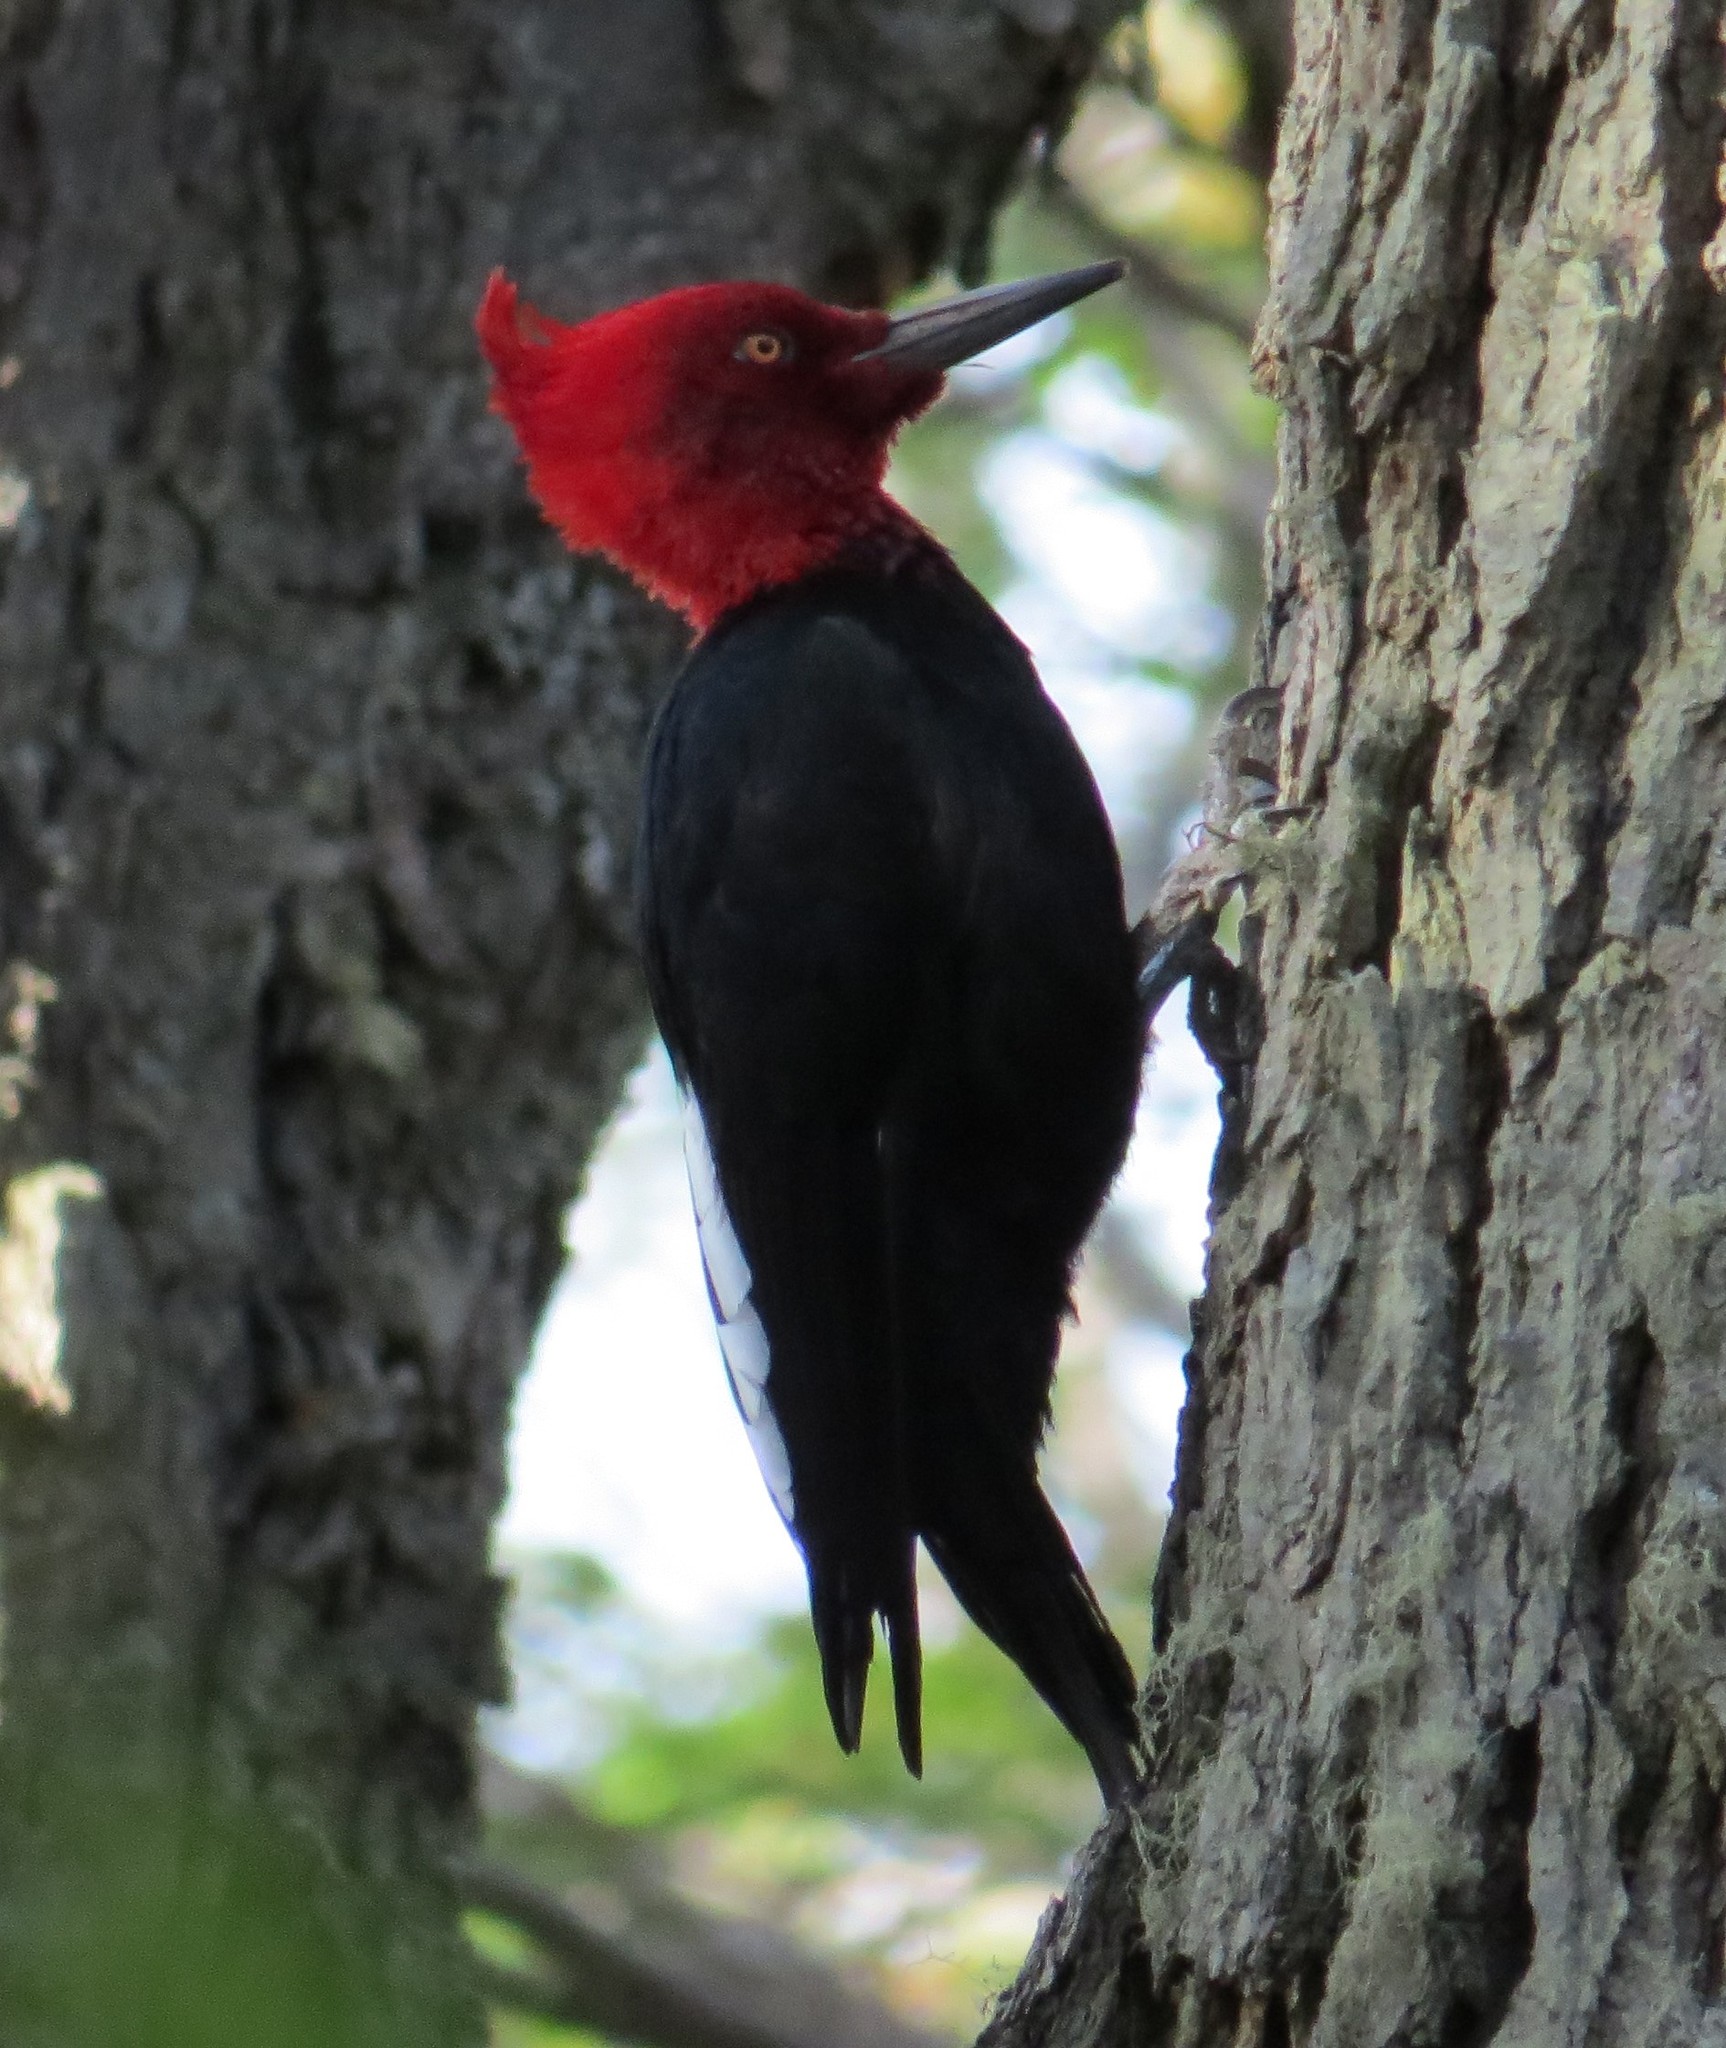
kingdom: Animalia
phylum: Chordata
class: Aves
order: Piciformes
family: Picidae
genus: Campephilus
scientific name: Campephilus magellanicus
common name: Magellanic woodpecker
